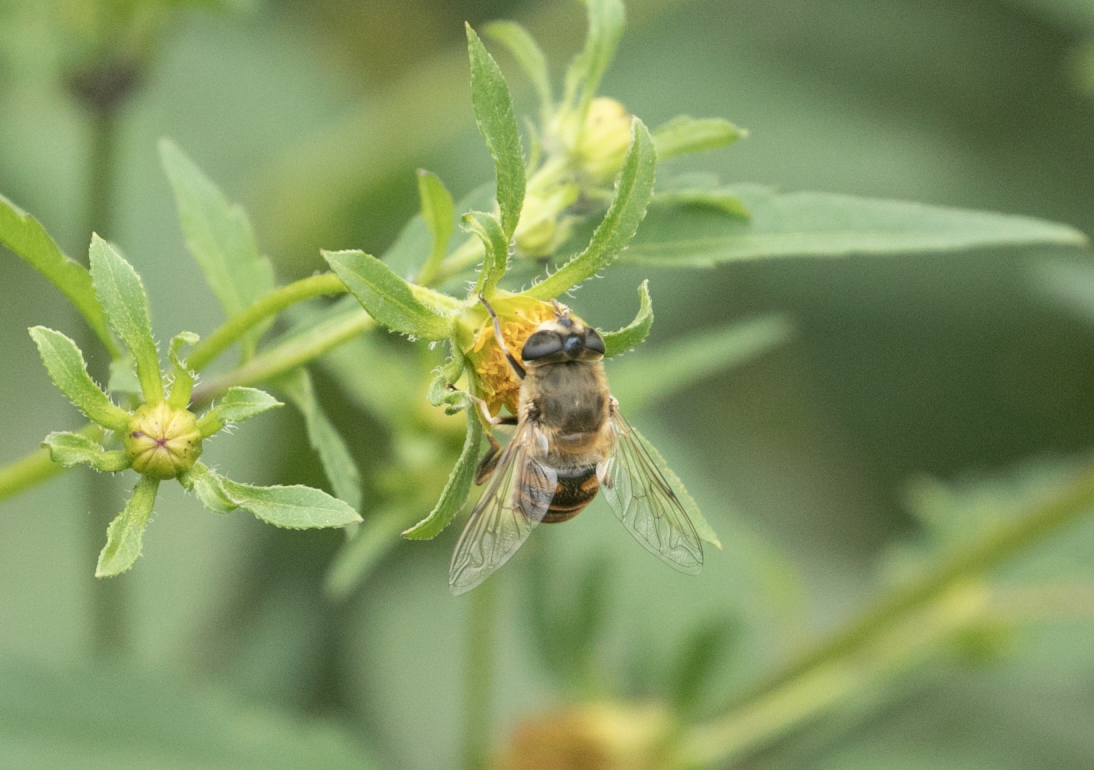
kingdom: Animalia
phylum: Arthropoda
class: Insecta
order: Diptera
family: Syrphidae
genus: Eristalis
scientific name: Eristalis tenax
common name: Drone fly
